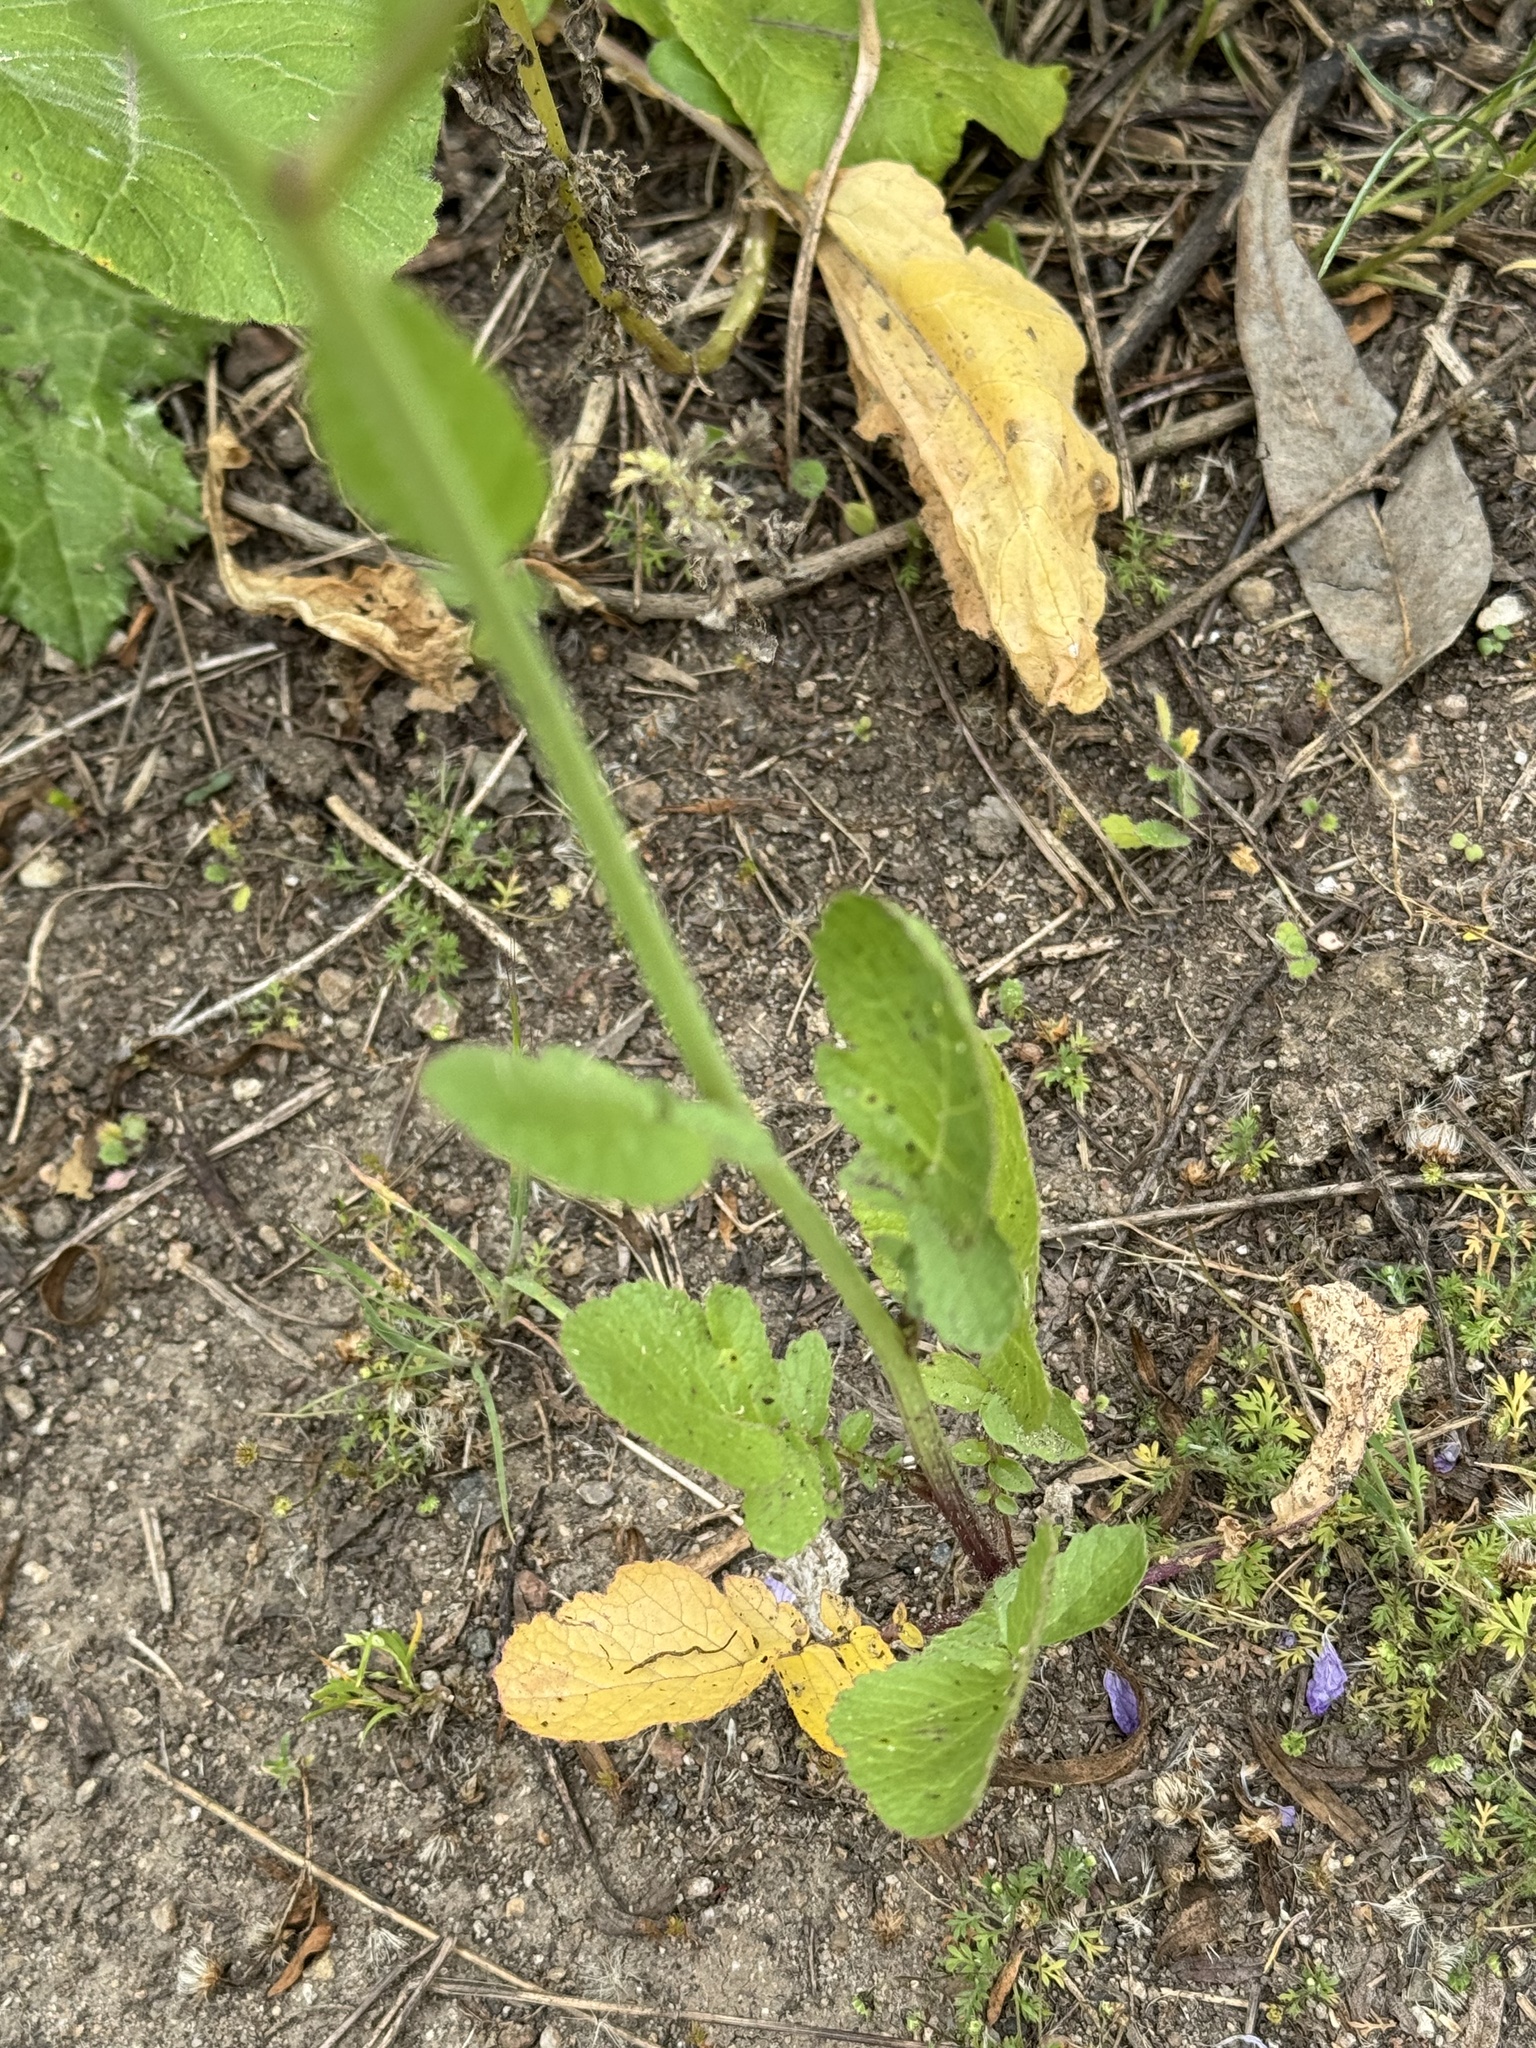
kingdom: Plantae
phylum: Tracheophyta
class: Magnoliopsida
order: Brassicales
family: Brassicaceae
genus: Raphanus
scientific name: Raphanus sativus
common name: Cultivated radish
